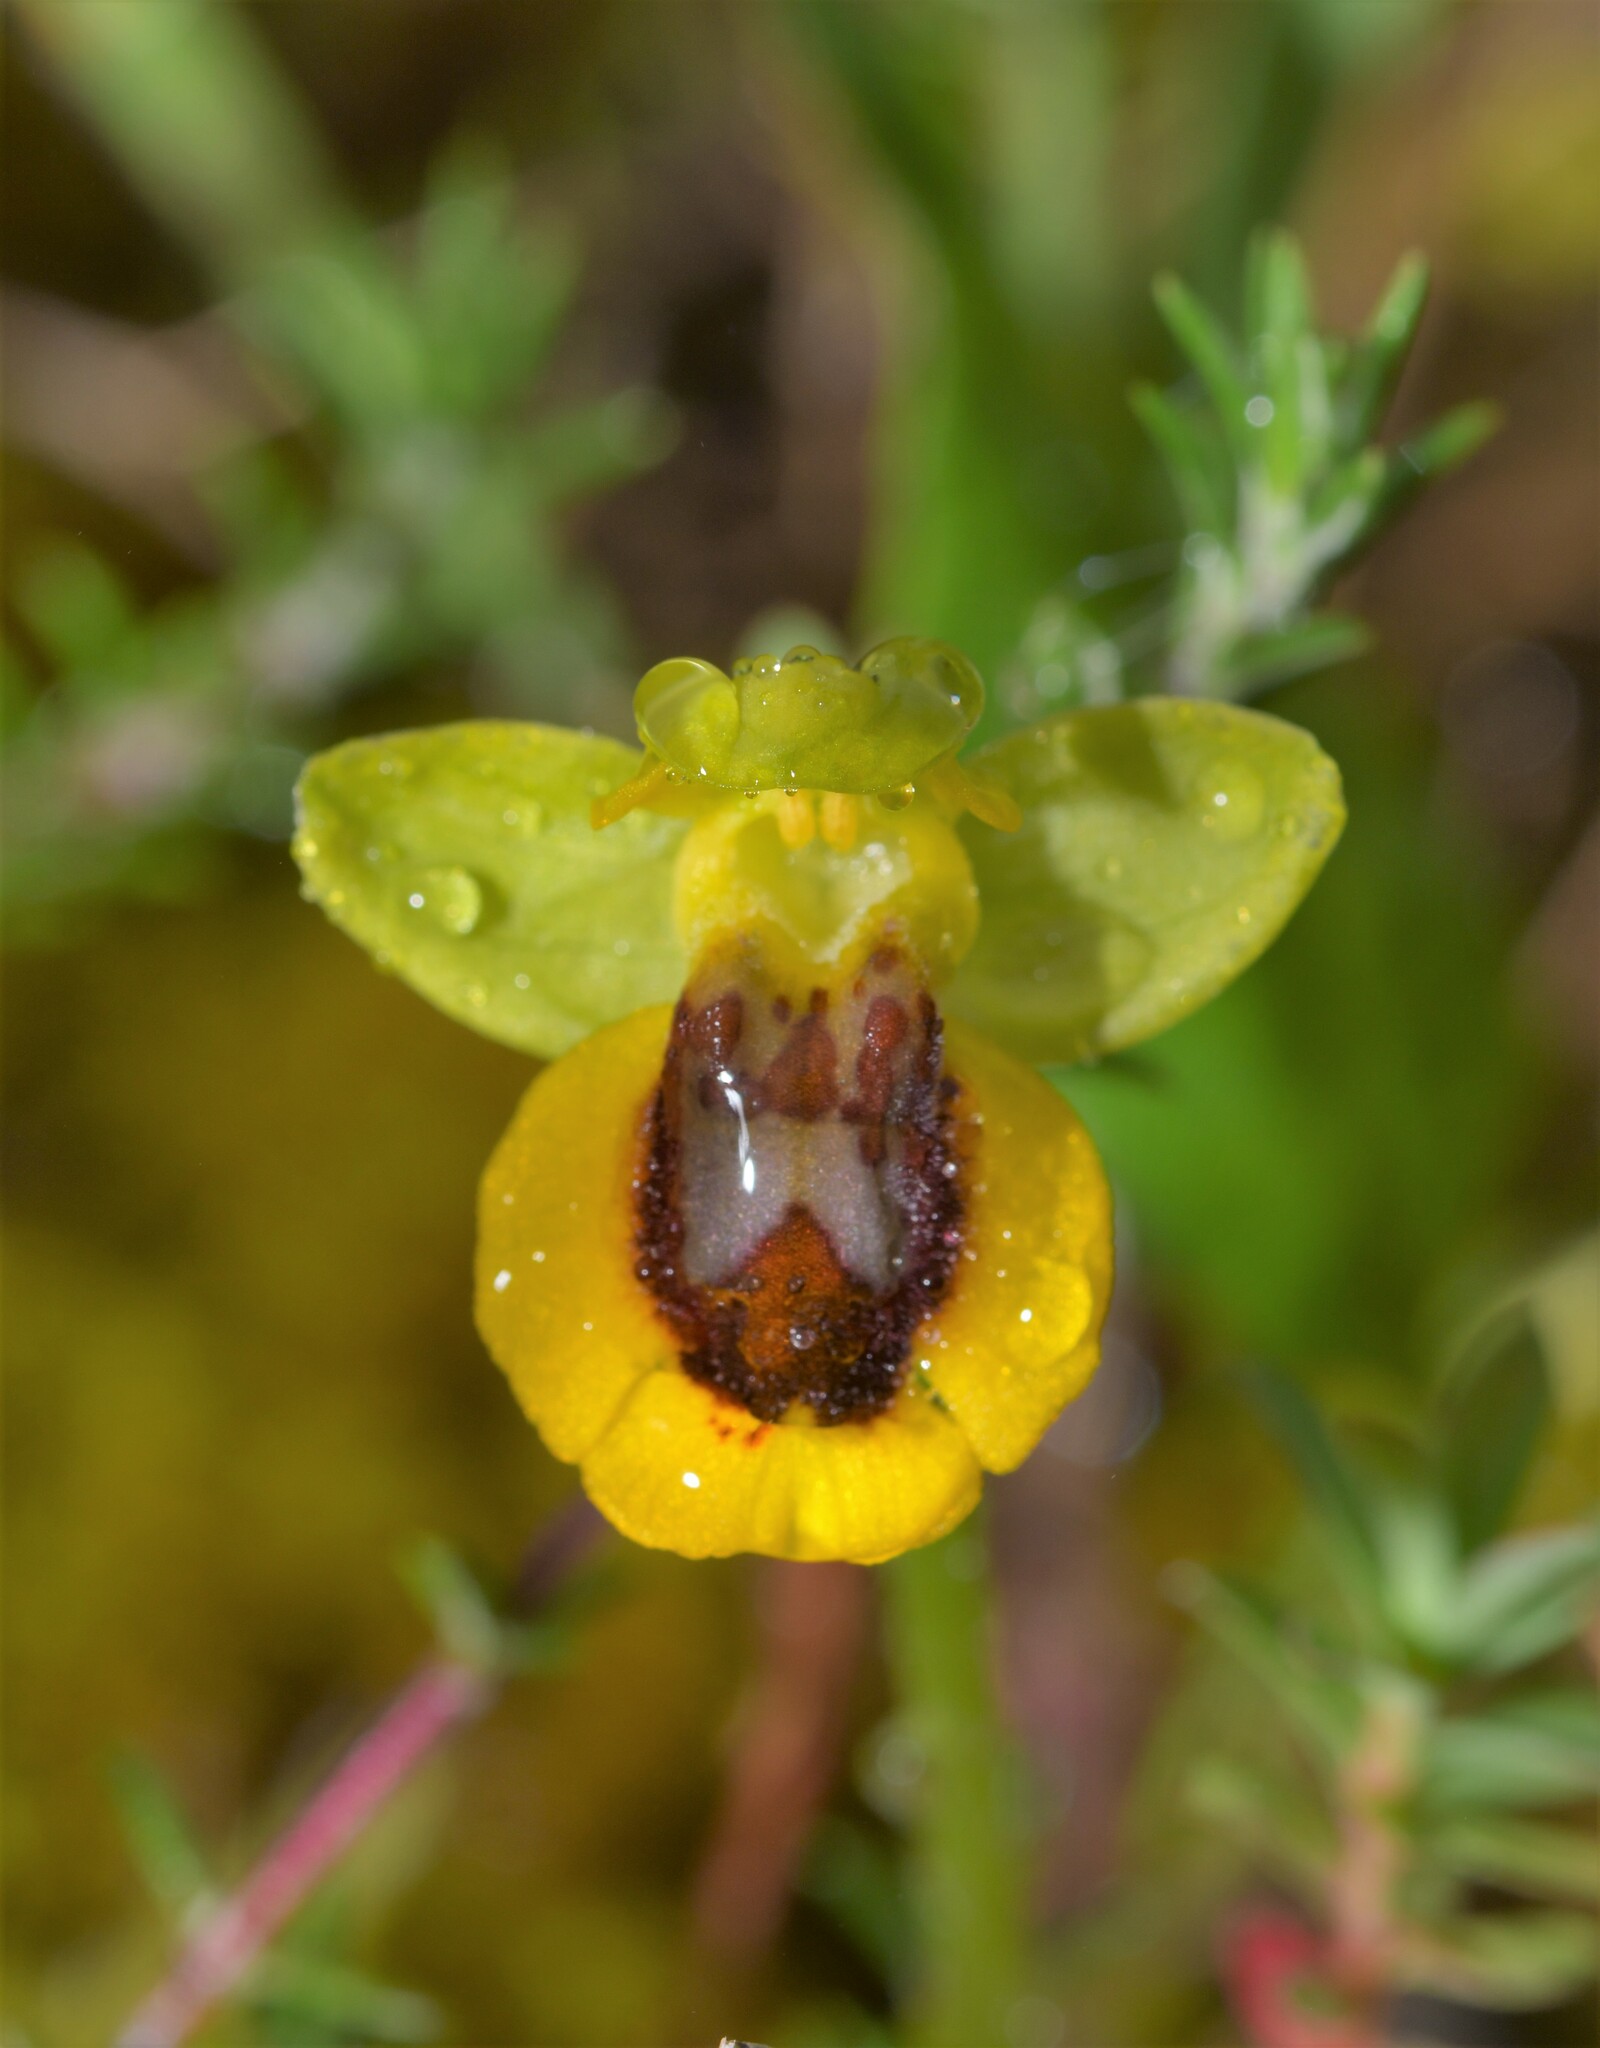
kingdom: Plantae
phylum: Tracheophyta
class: Liliopsida
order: Asparagales
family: Orchidaceae
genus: Ophrys
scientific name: Ophrys lutea
